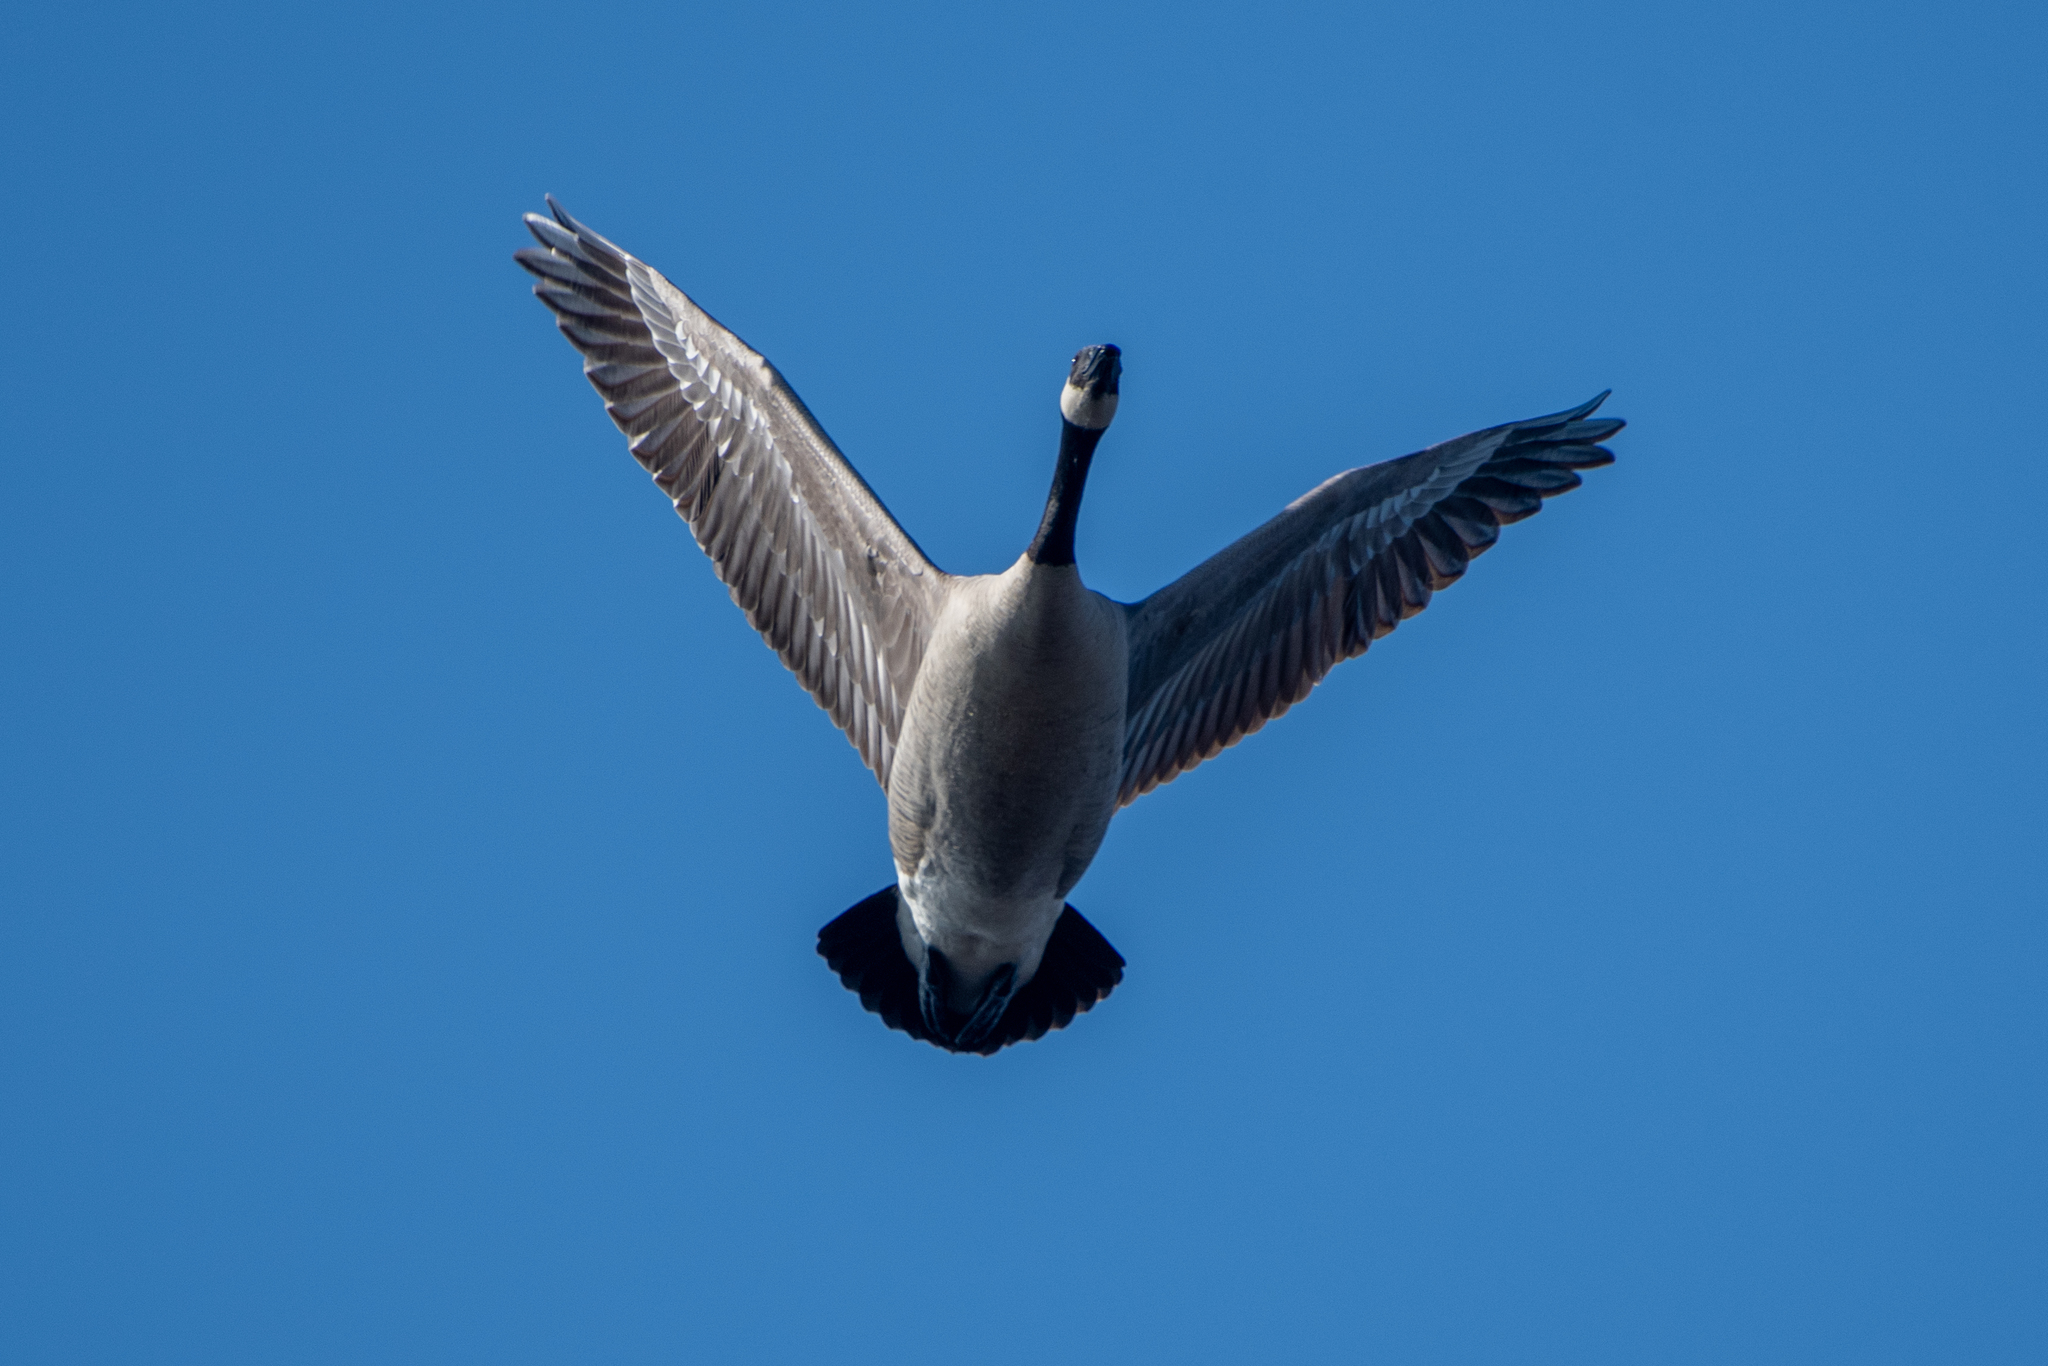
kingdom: Animalia
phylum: Chordata
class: Aves
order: Anseriformes
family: Anatidae
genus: Branta
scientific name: Branta canadensis
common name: Canada goose
